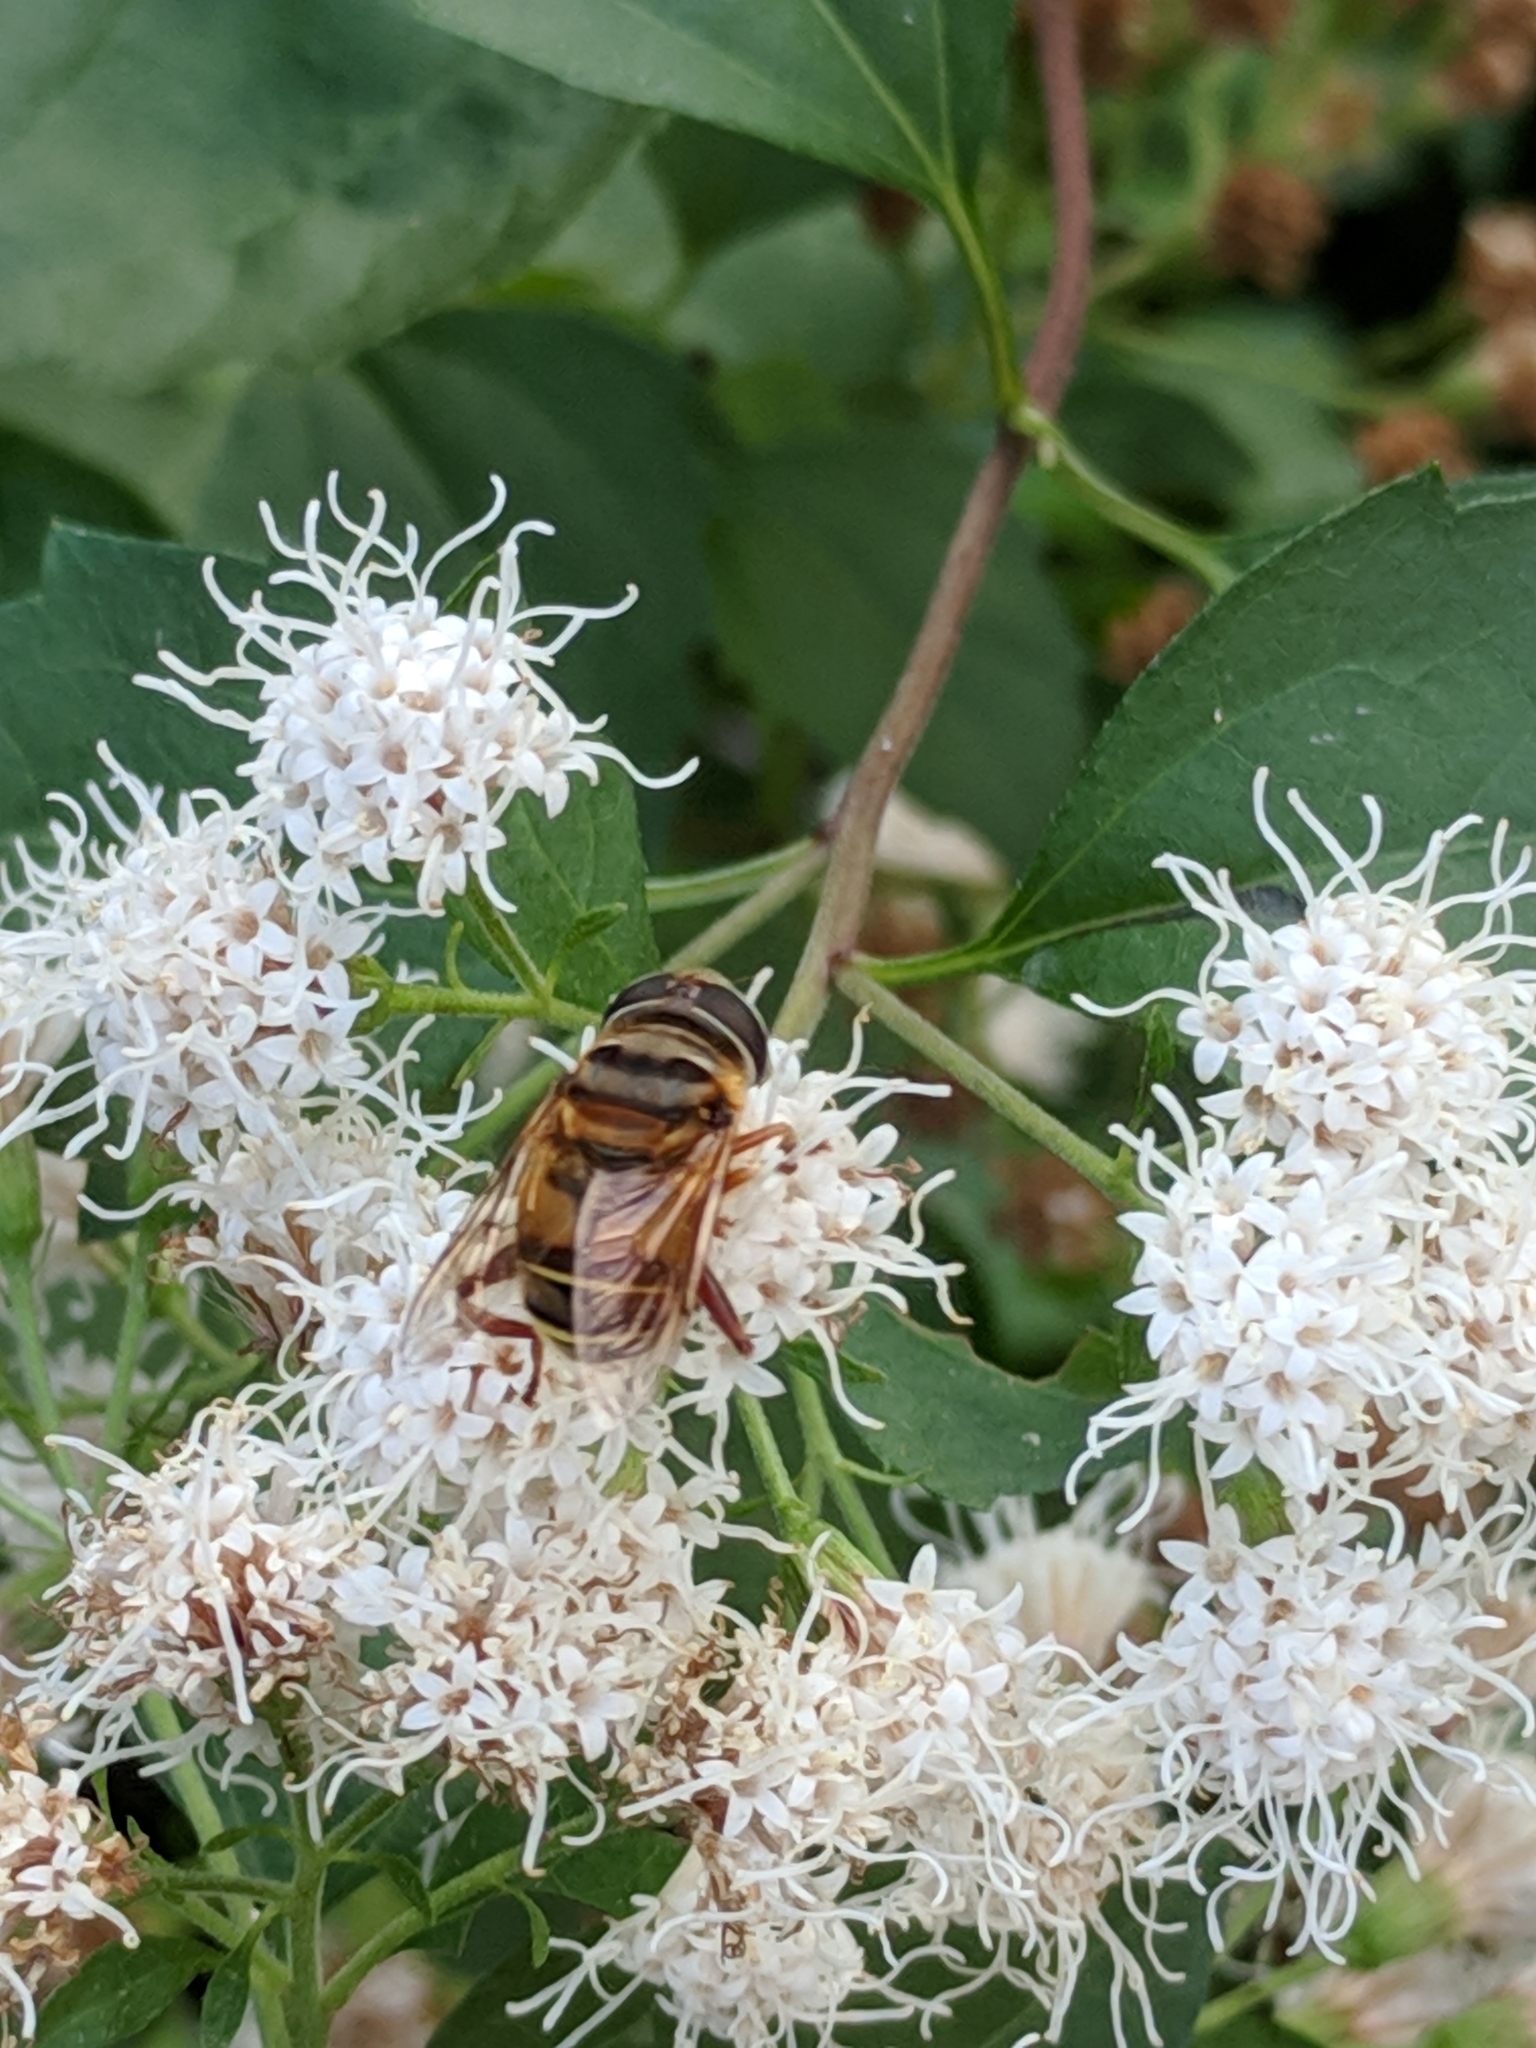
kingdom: Animalia
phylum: Arthropoda
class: Insecta
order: Diptera
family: Syrphidae
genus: Palpada
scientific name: Palpada vinetorum
